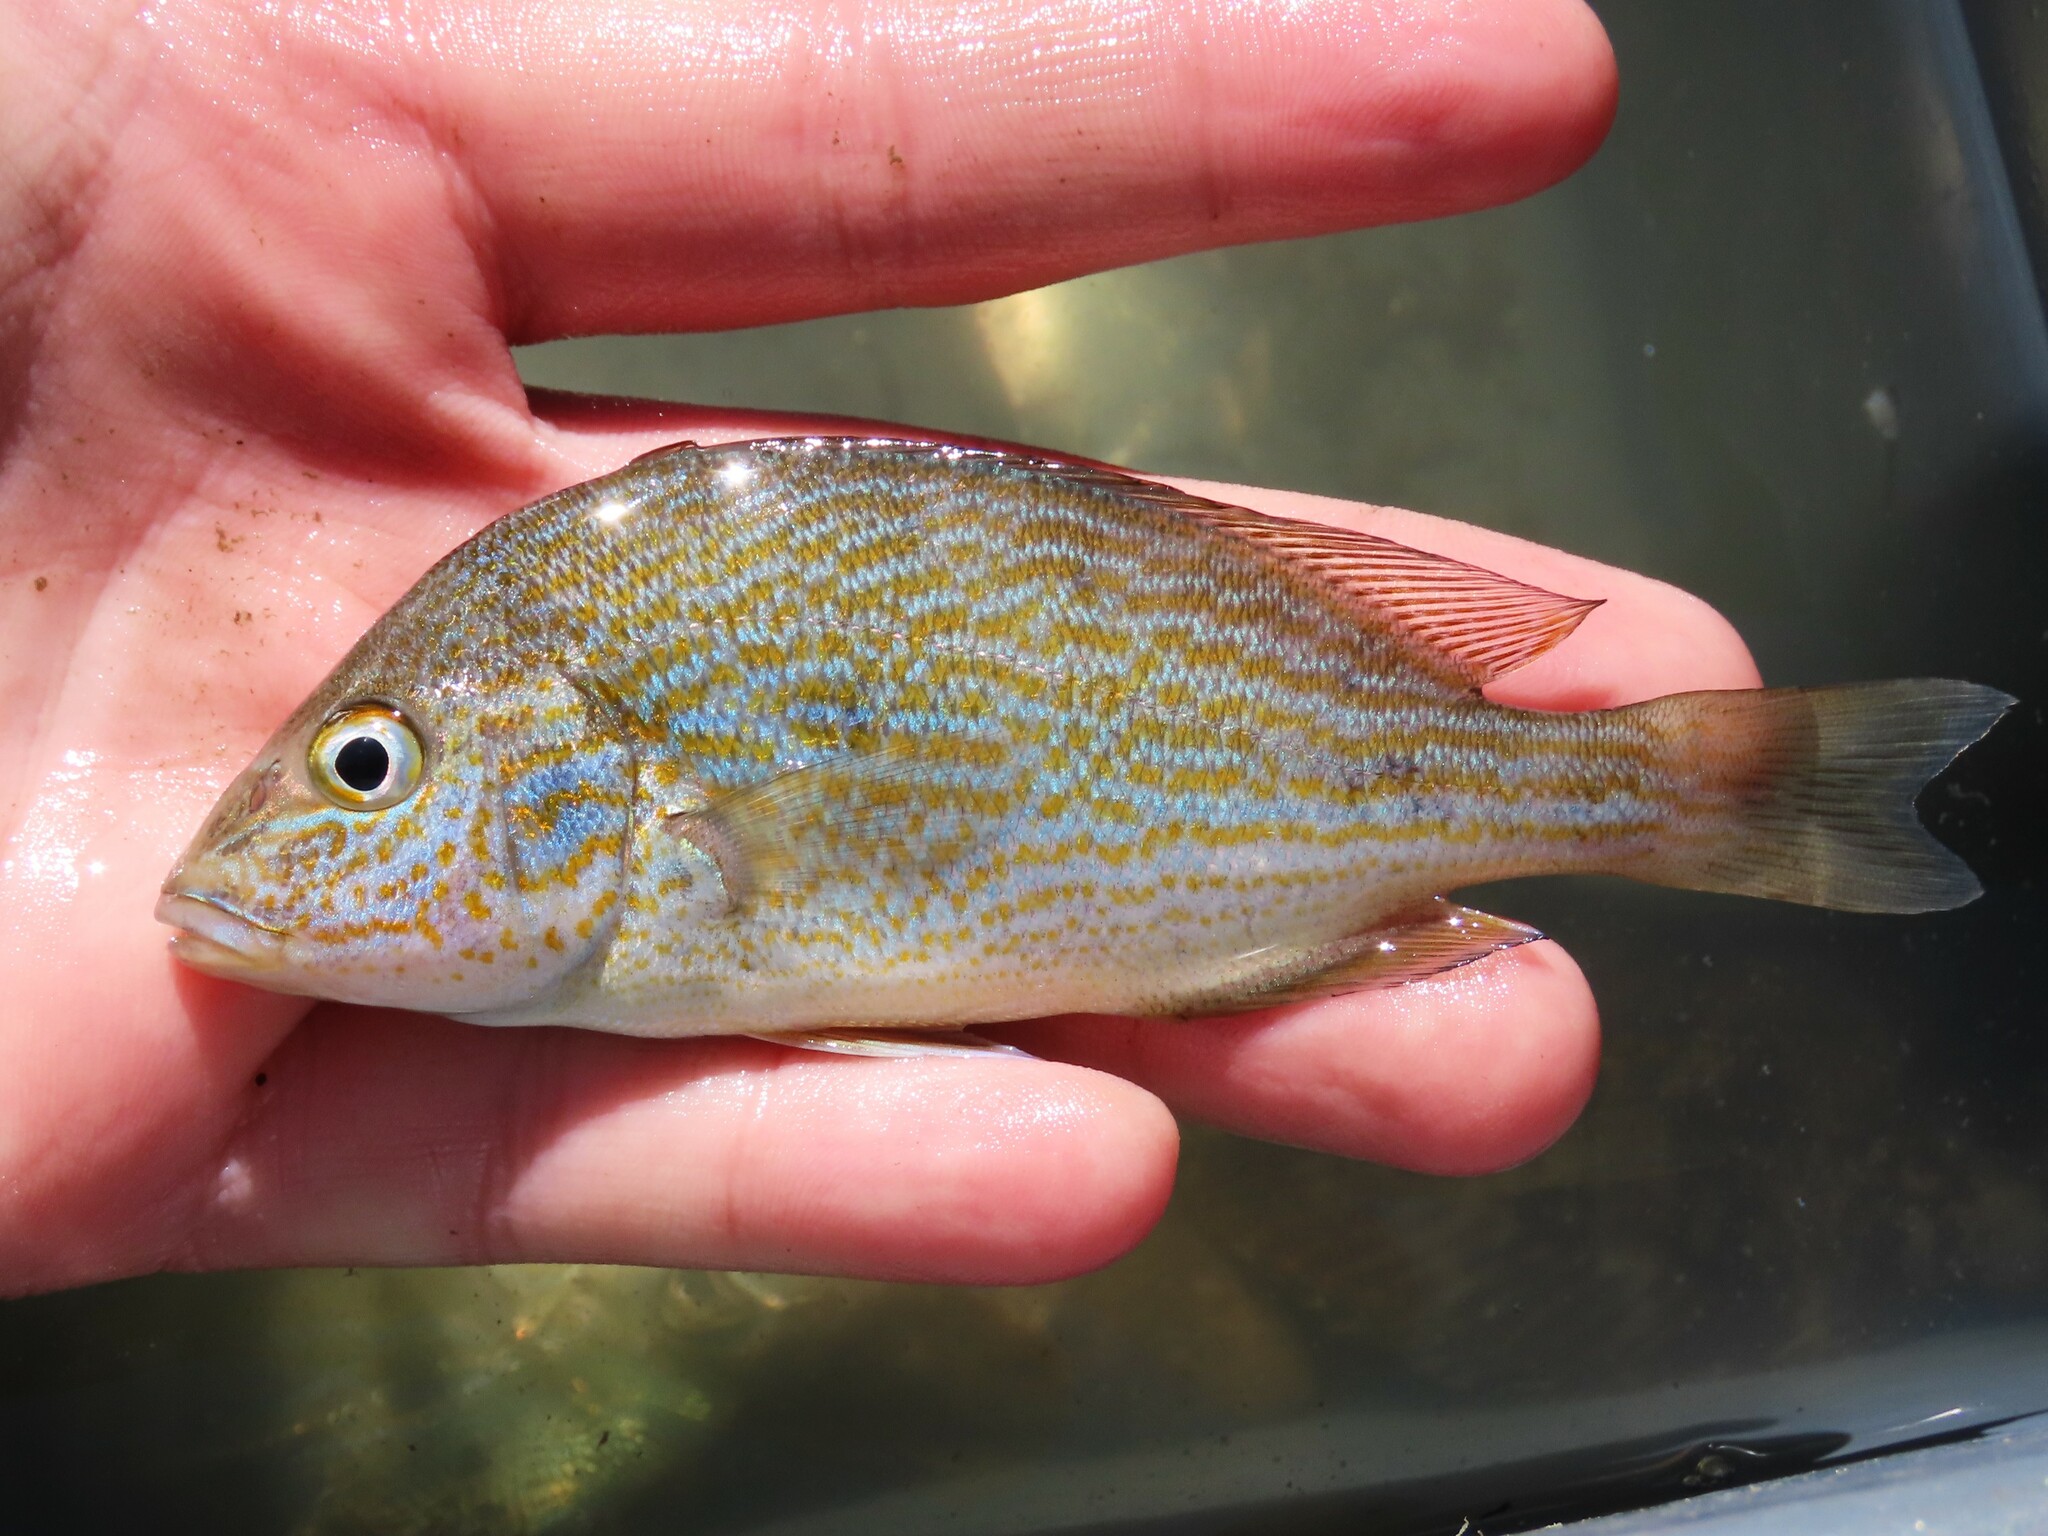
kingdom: Animalia
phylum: Chordata
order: Perciformes
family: Haemulidae
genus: Orthopristis
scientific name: Orthopristis chrysoptera
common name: Pigfish
